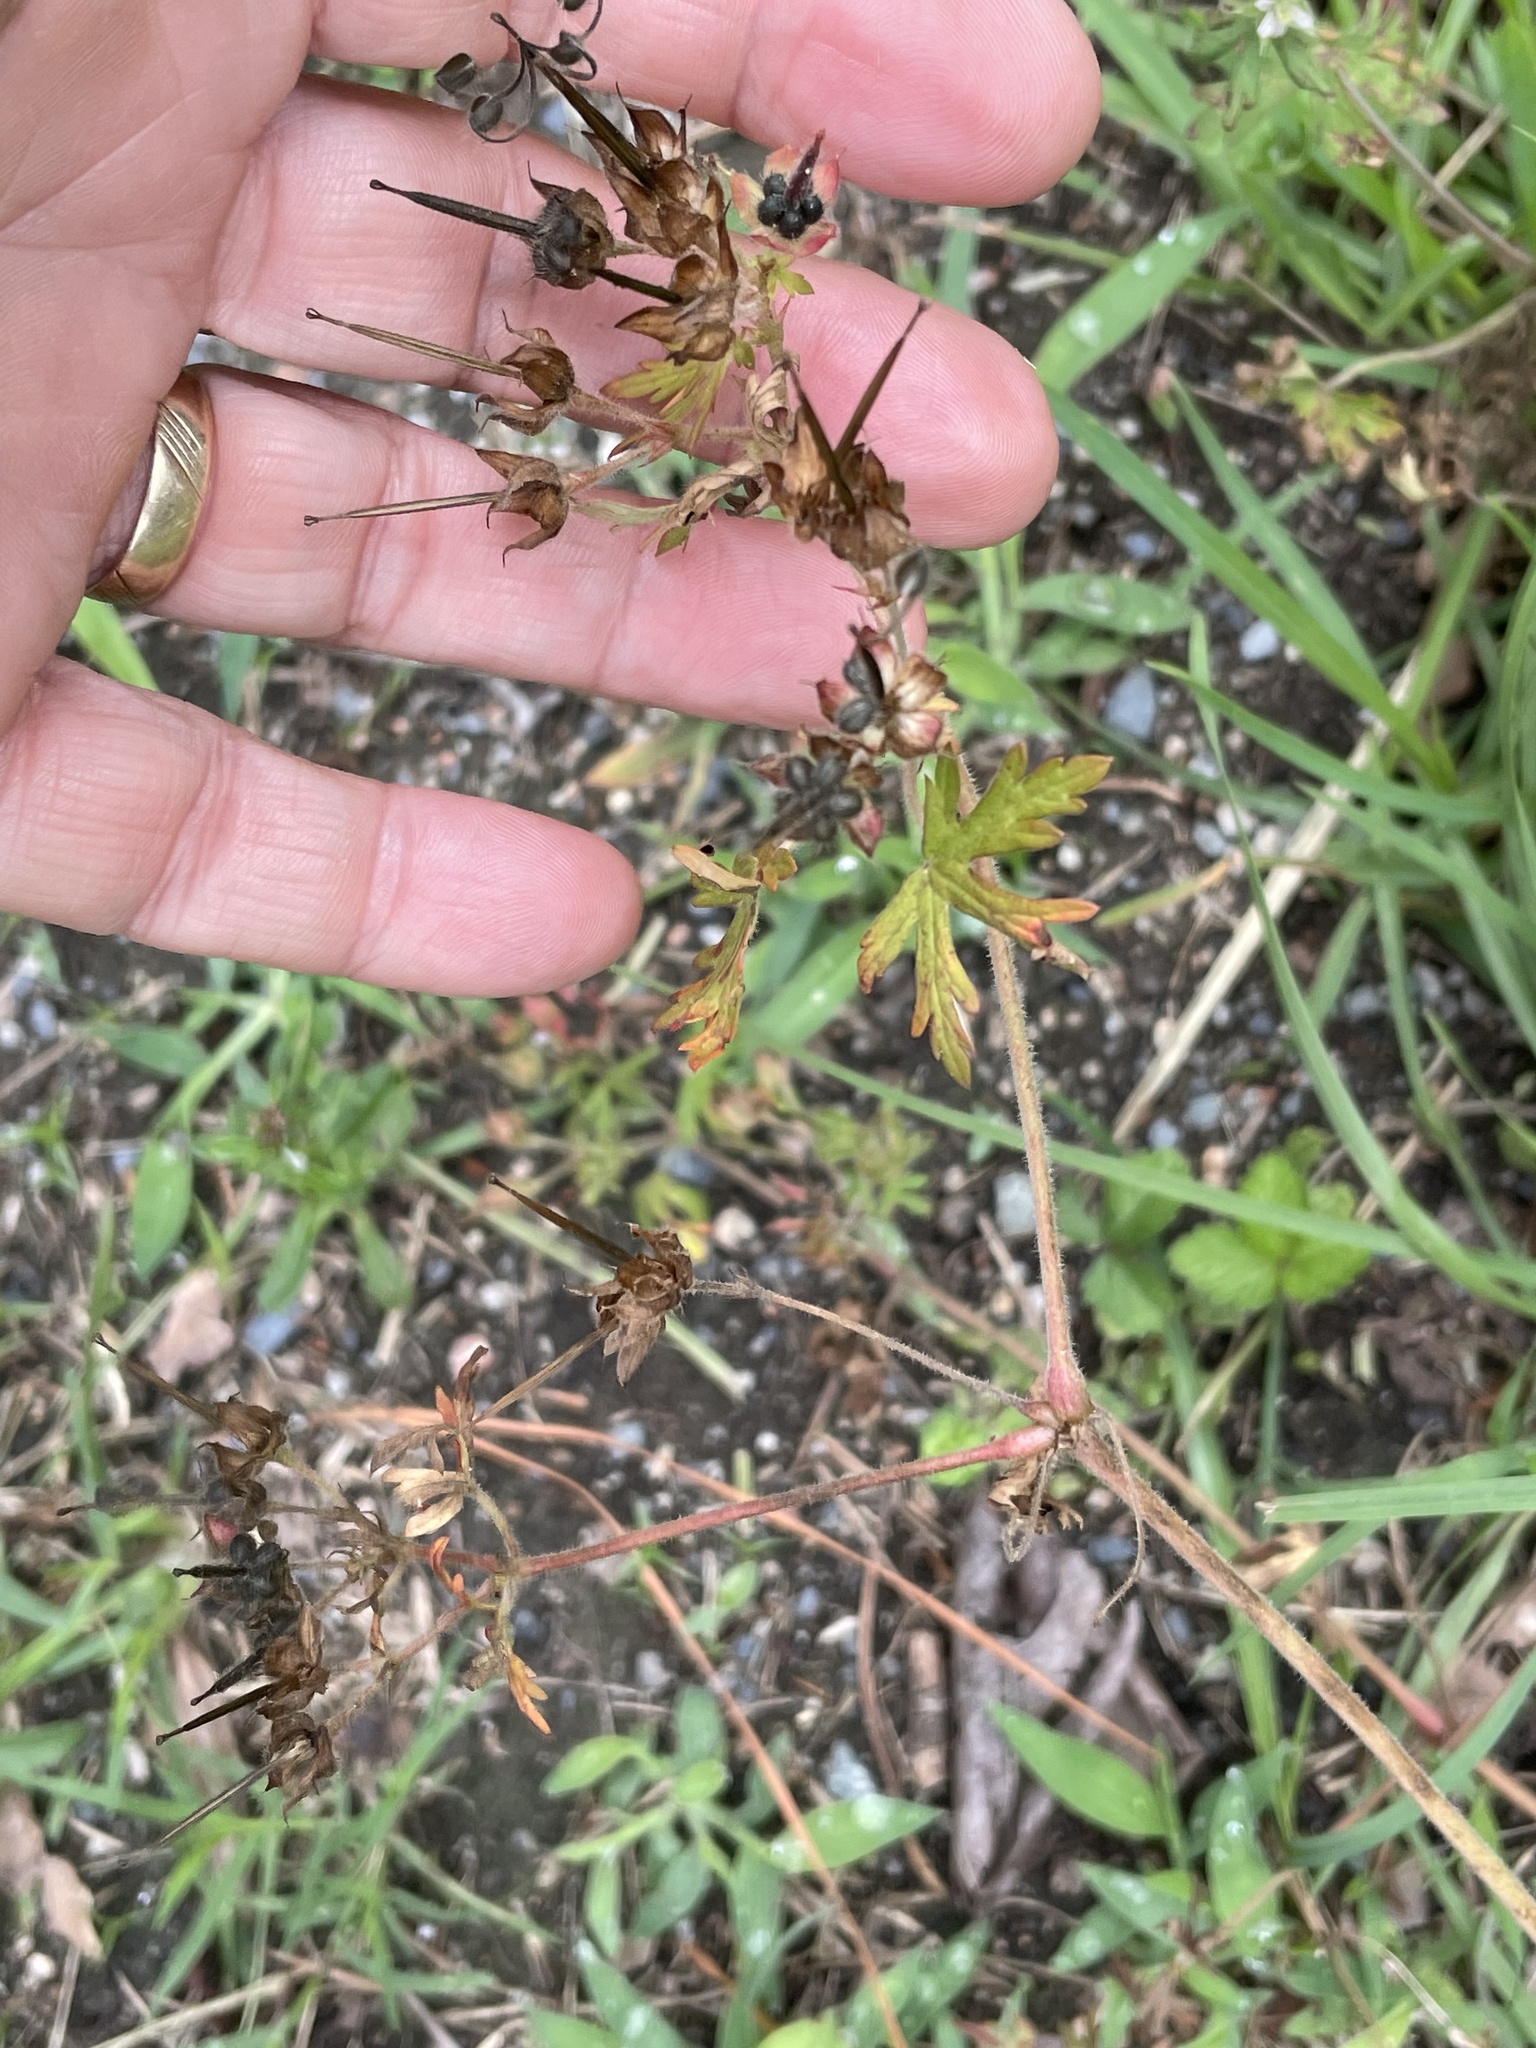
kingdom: Plantae
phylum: Tracheophyta
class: Magnoliopsida
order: Geraniales
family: Geraniaceae
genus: Geranium
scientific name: Geranium carolinianum
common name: Carolina crane's-bill
